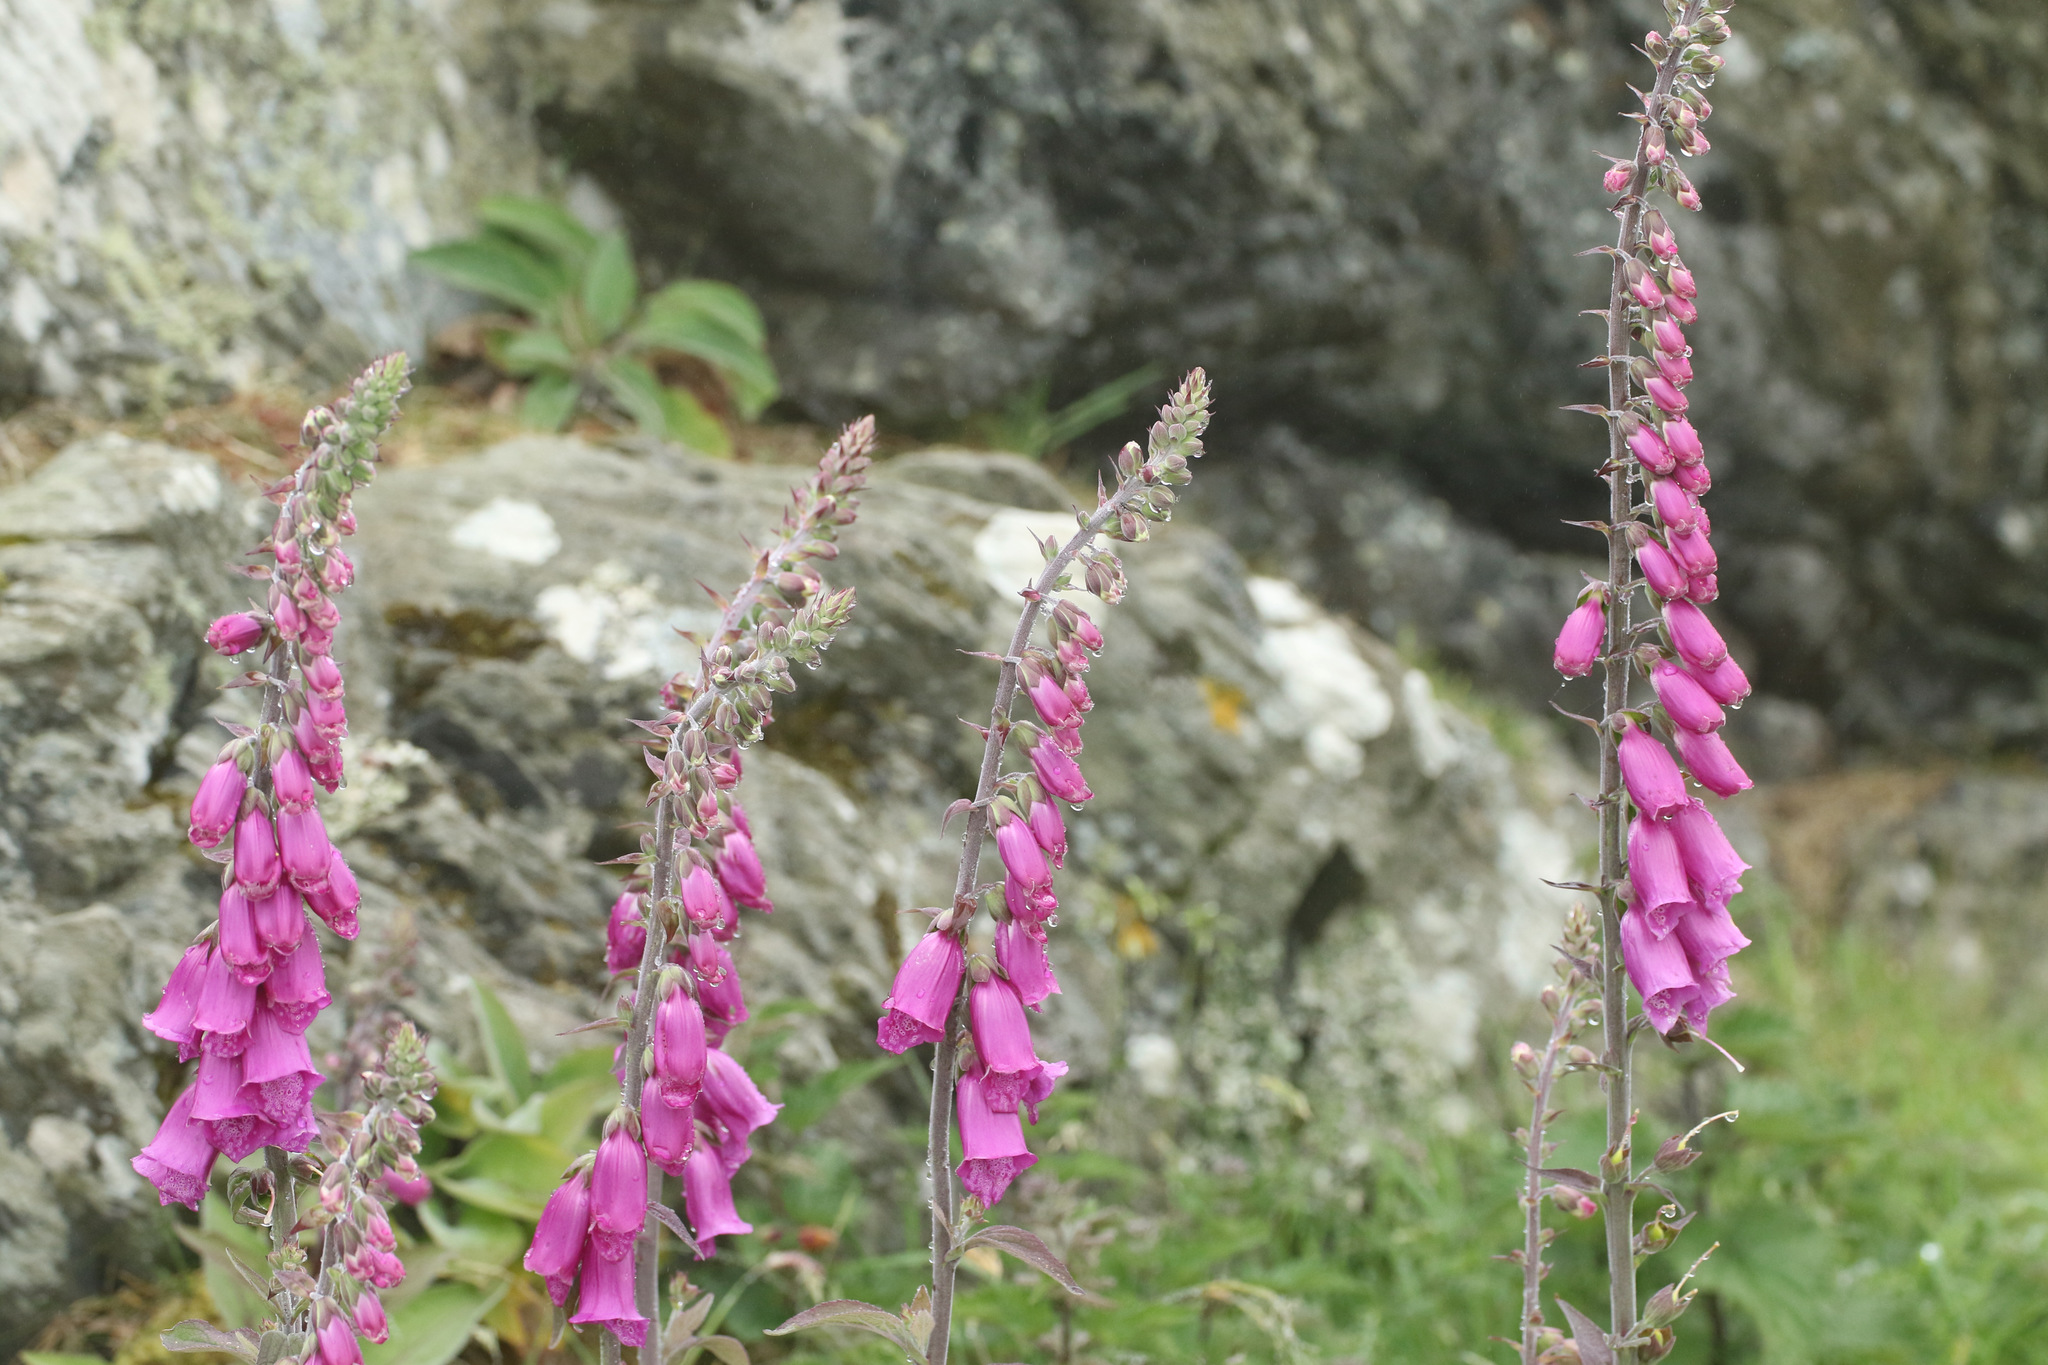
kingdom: Plantae
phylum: Tracheophyta
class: Magnoliopsida
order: Lamiales
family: Plantaginaceae
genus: Digitalis
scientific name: Digitalis purpurea
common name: Foxglove
